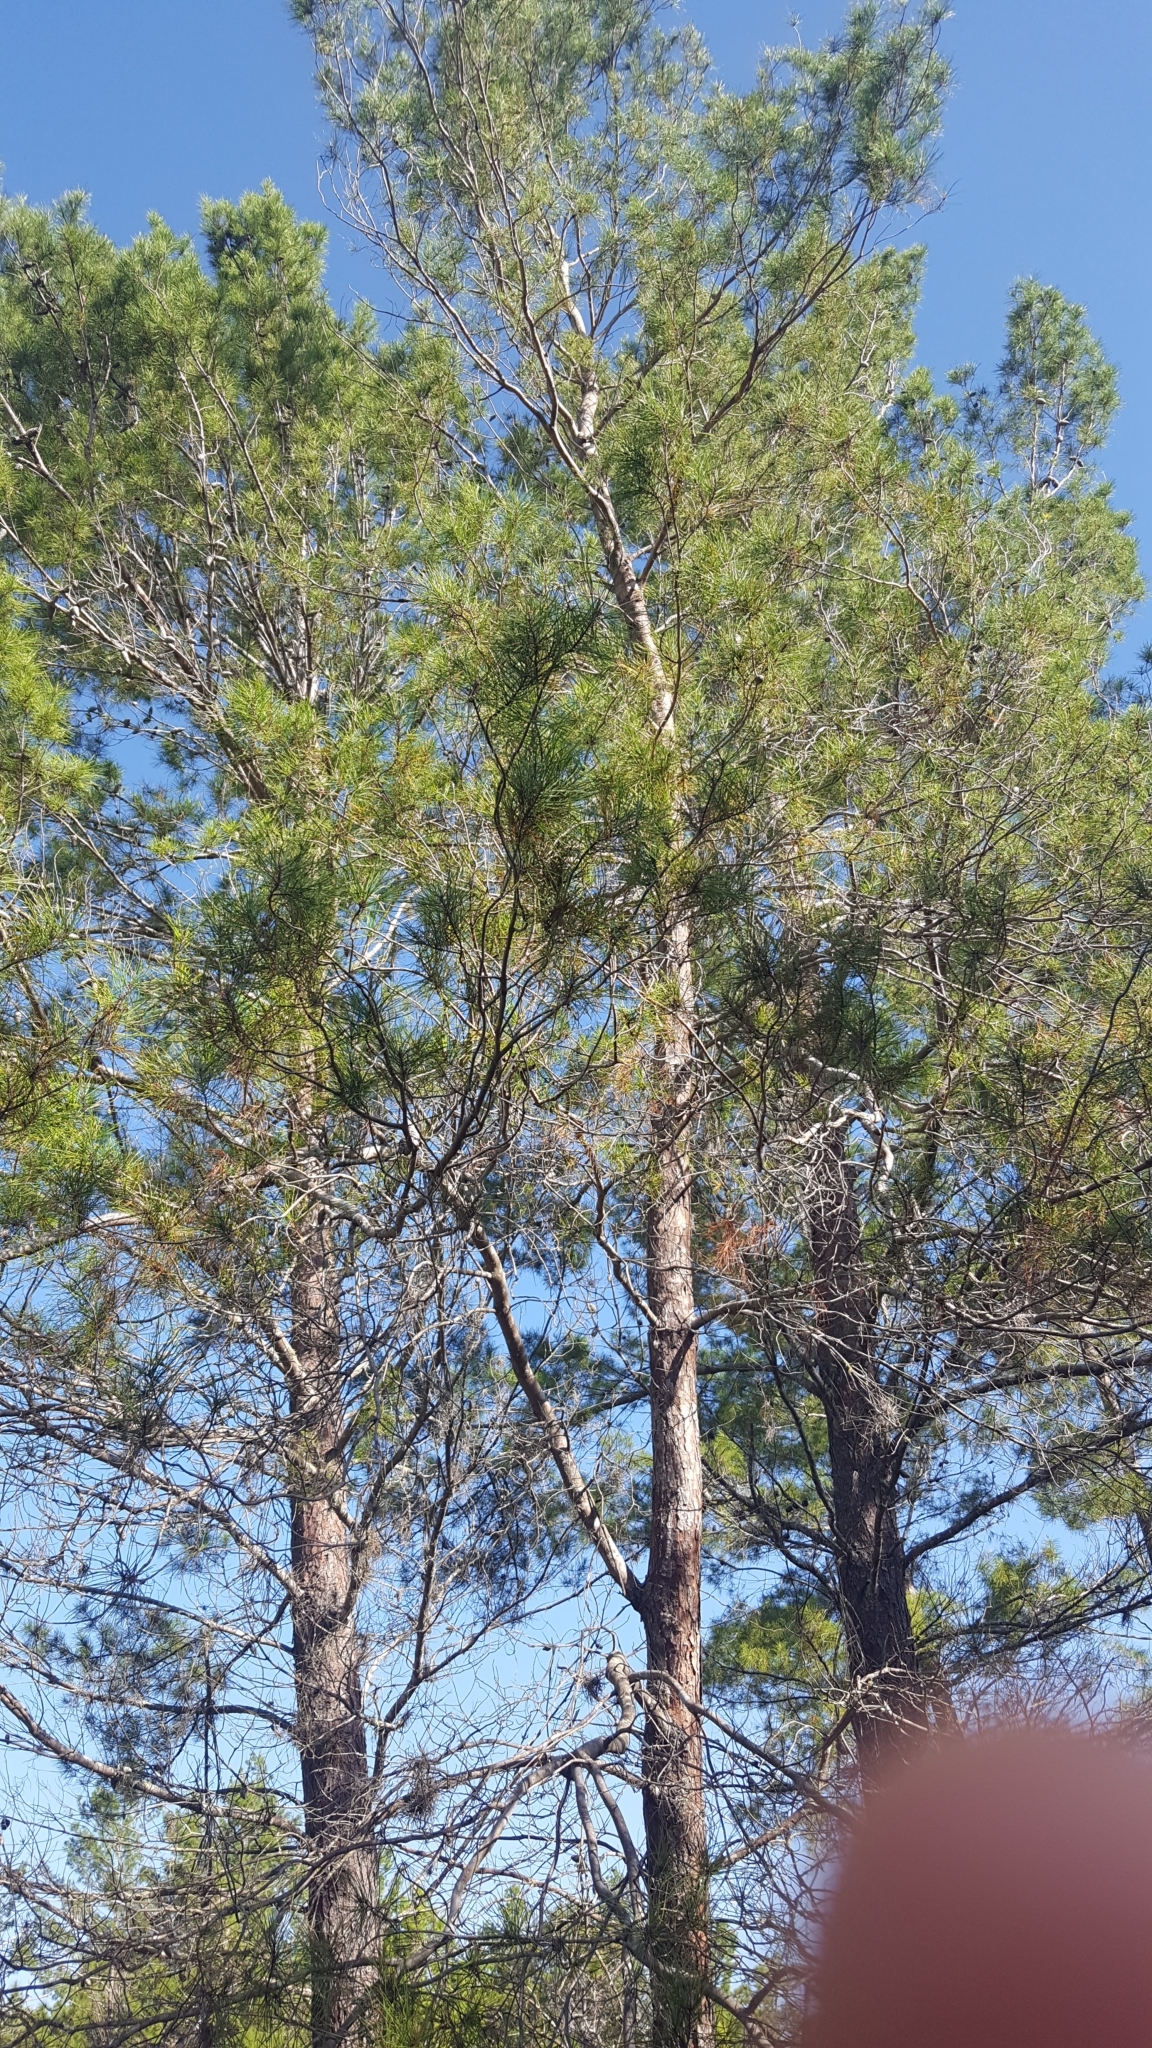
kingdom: Plantae
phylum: Tracheophyta
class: Pinopsida
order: Pinales
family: Pinaceae
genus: Pinus
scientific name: Pinus clausa
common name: Sand pine
